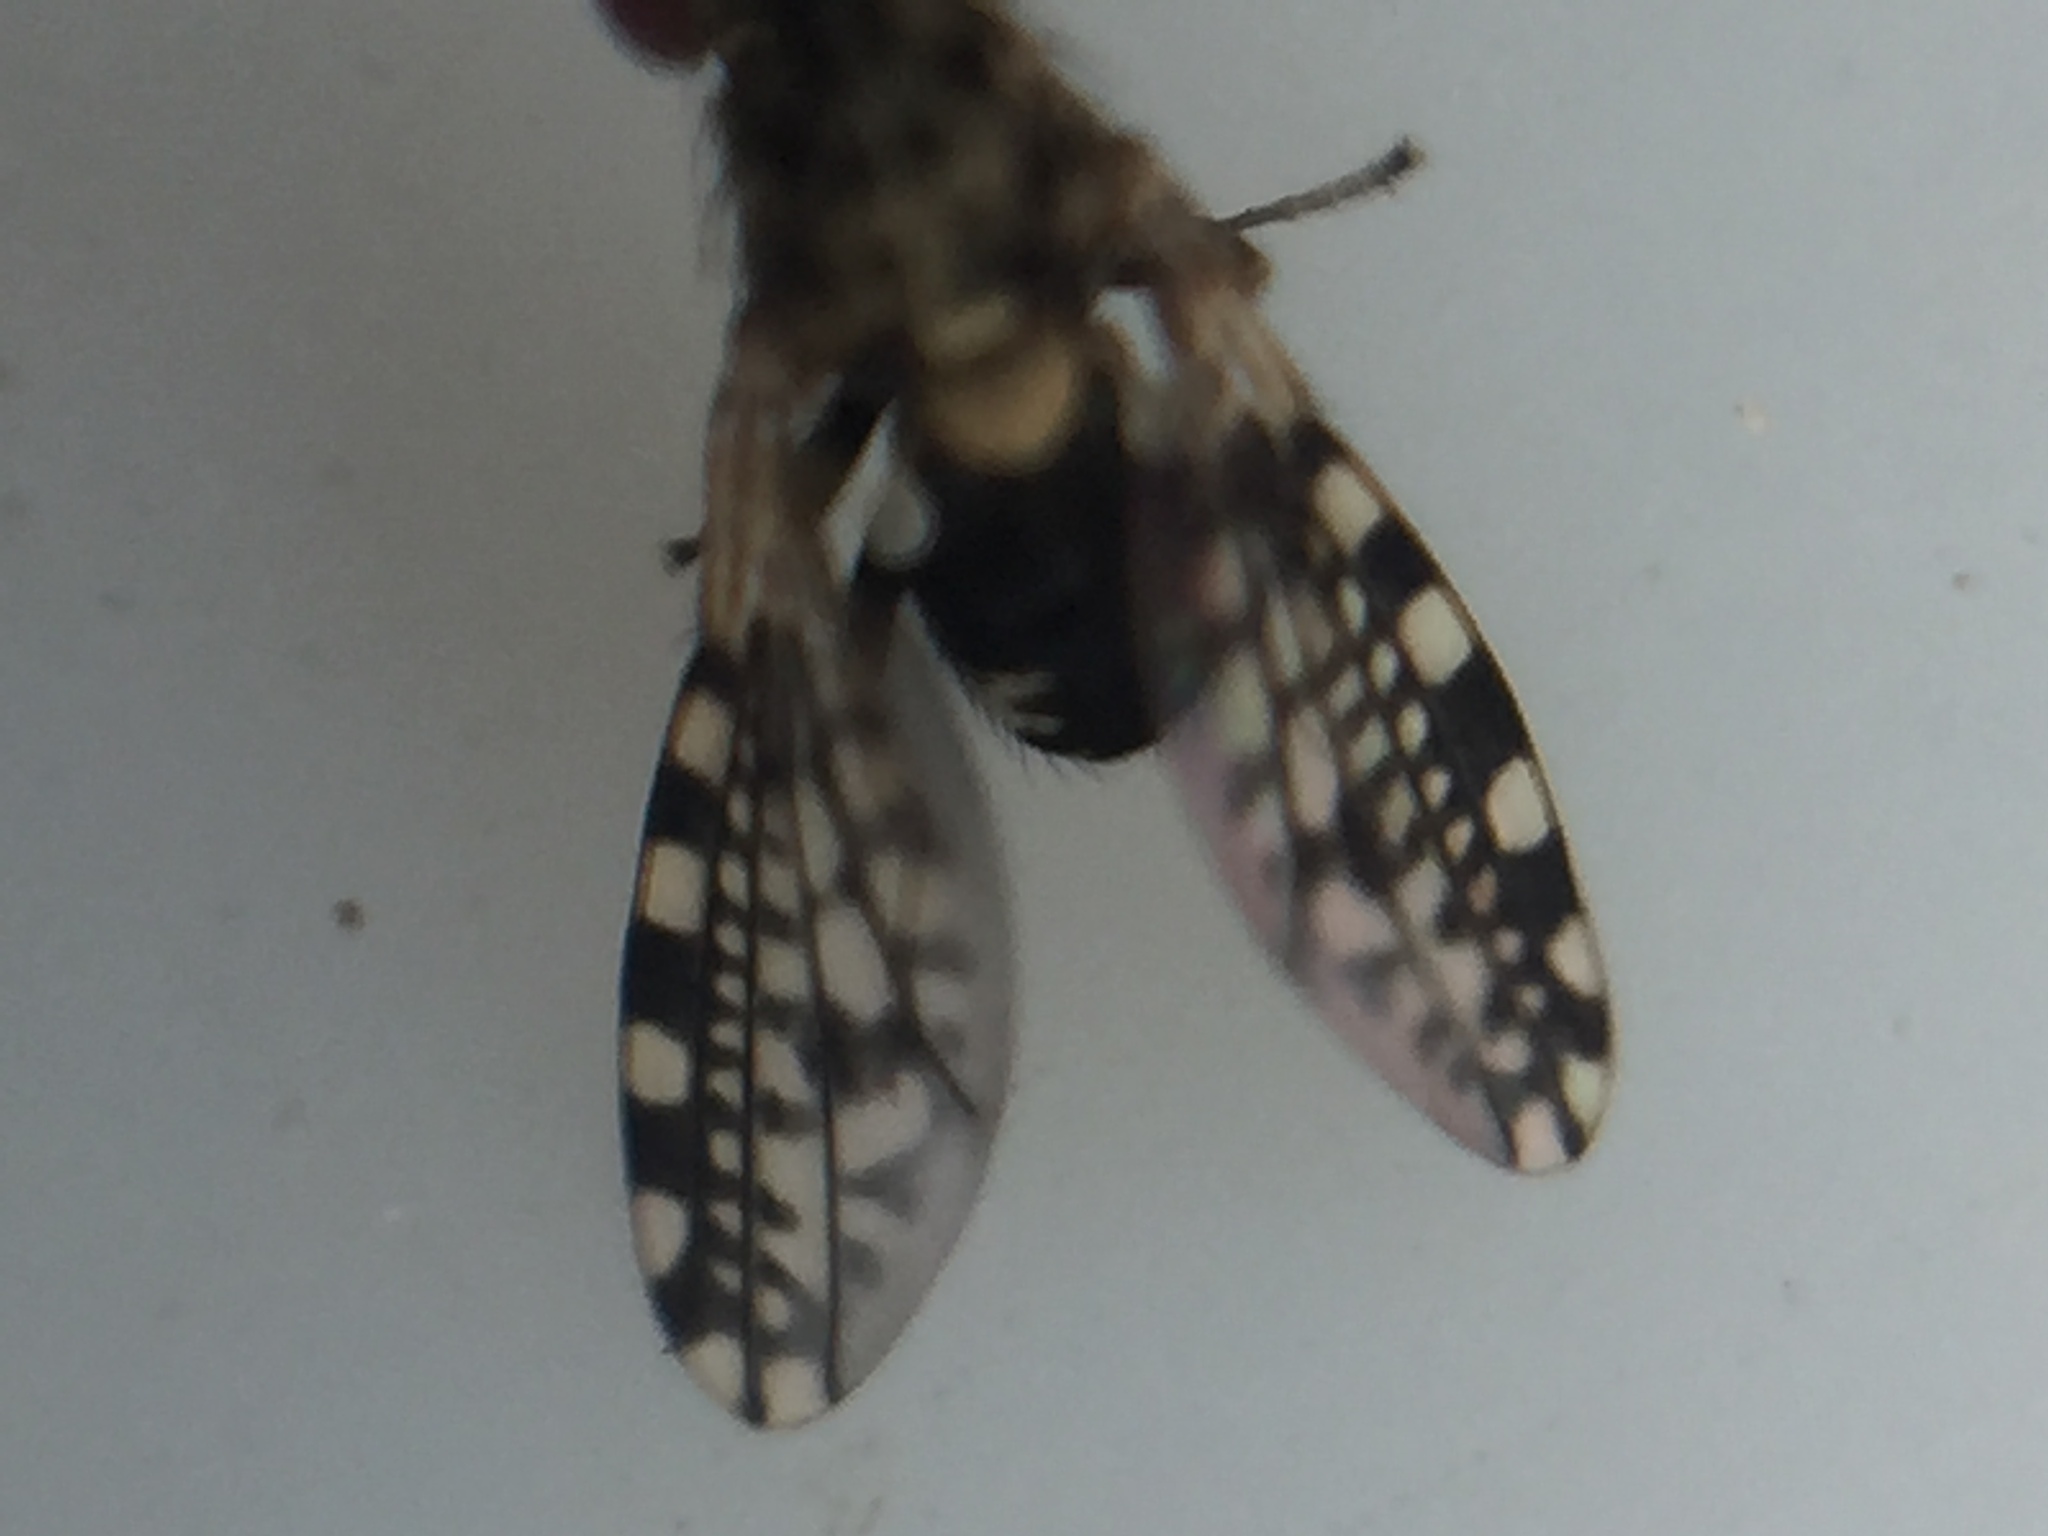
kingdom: Animalia
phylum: Arthropoda
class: Insecta
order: Diptera
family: Heleomyzidae
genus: Xeneura
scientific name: Xeneura picata
